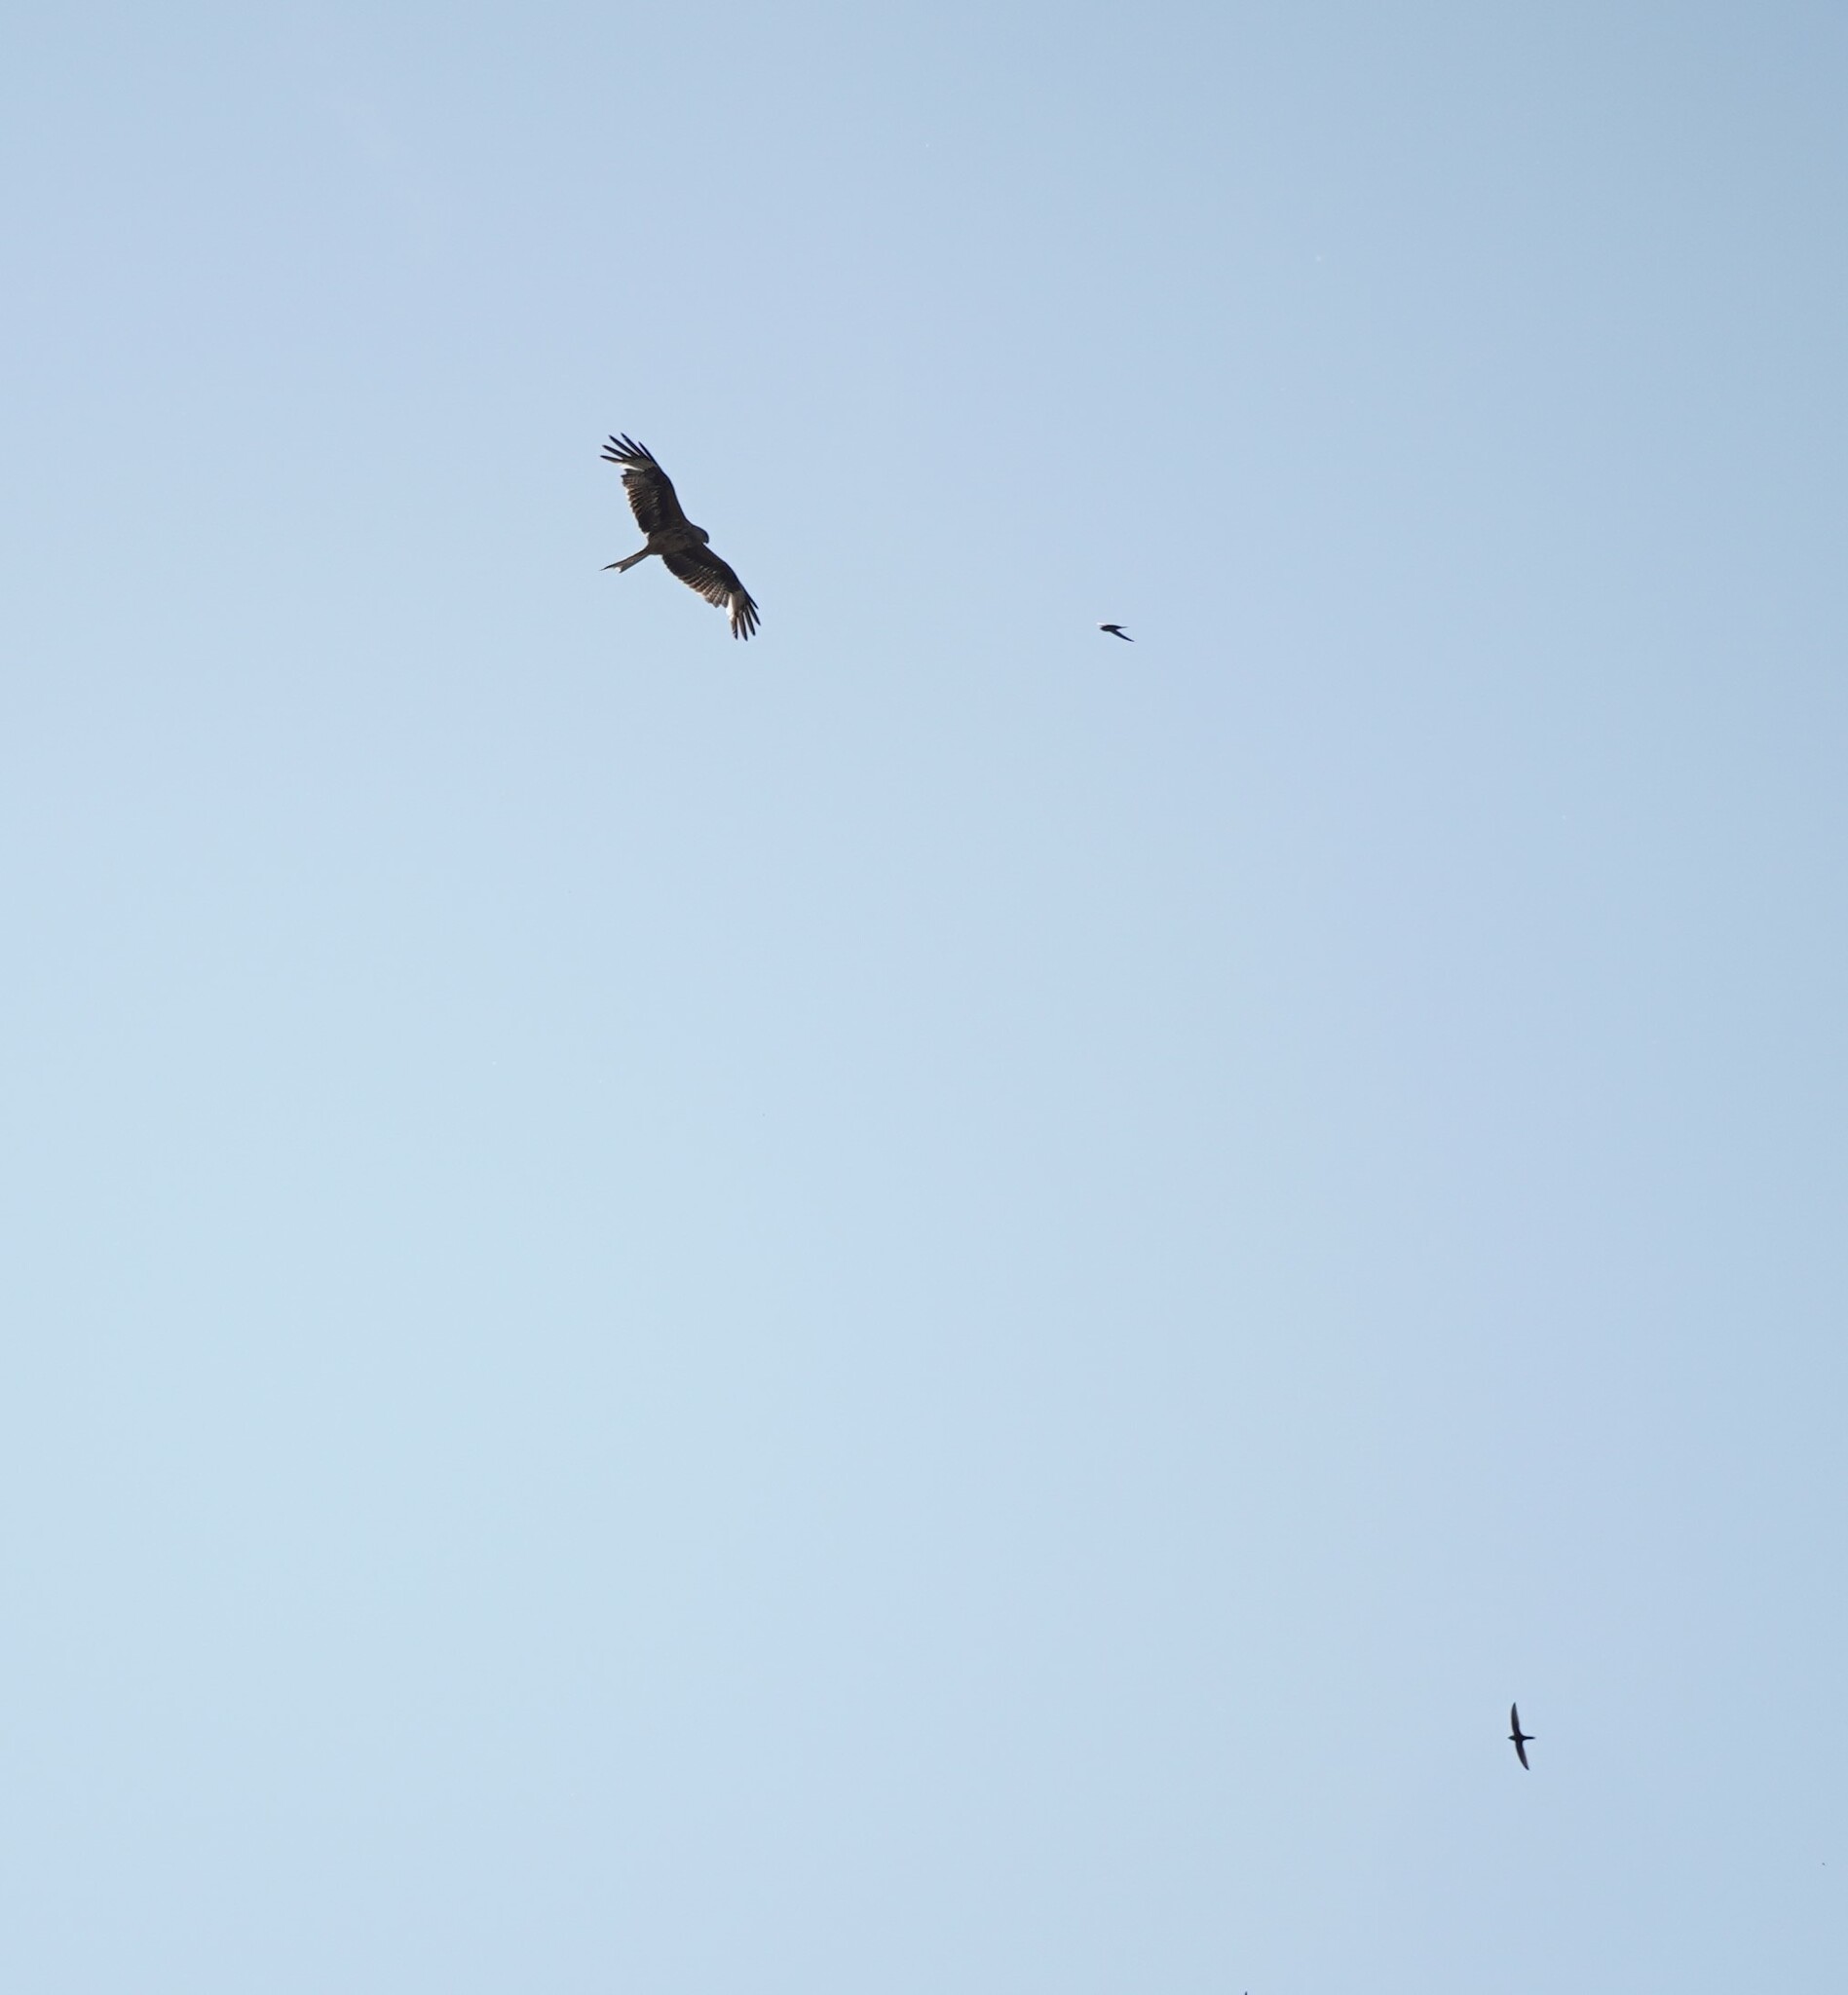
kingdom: Animalia
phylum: Chordata
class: Aves
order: Accipitriformes
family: Accipitridae
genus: Milvus
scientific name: Milvus milvus
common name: Red kite
